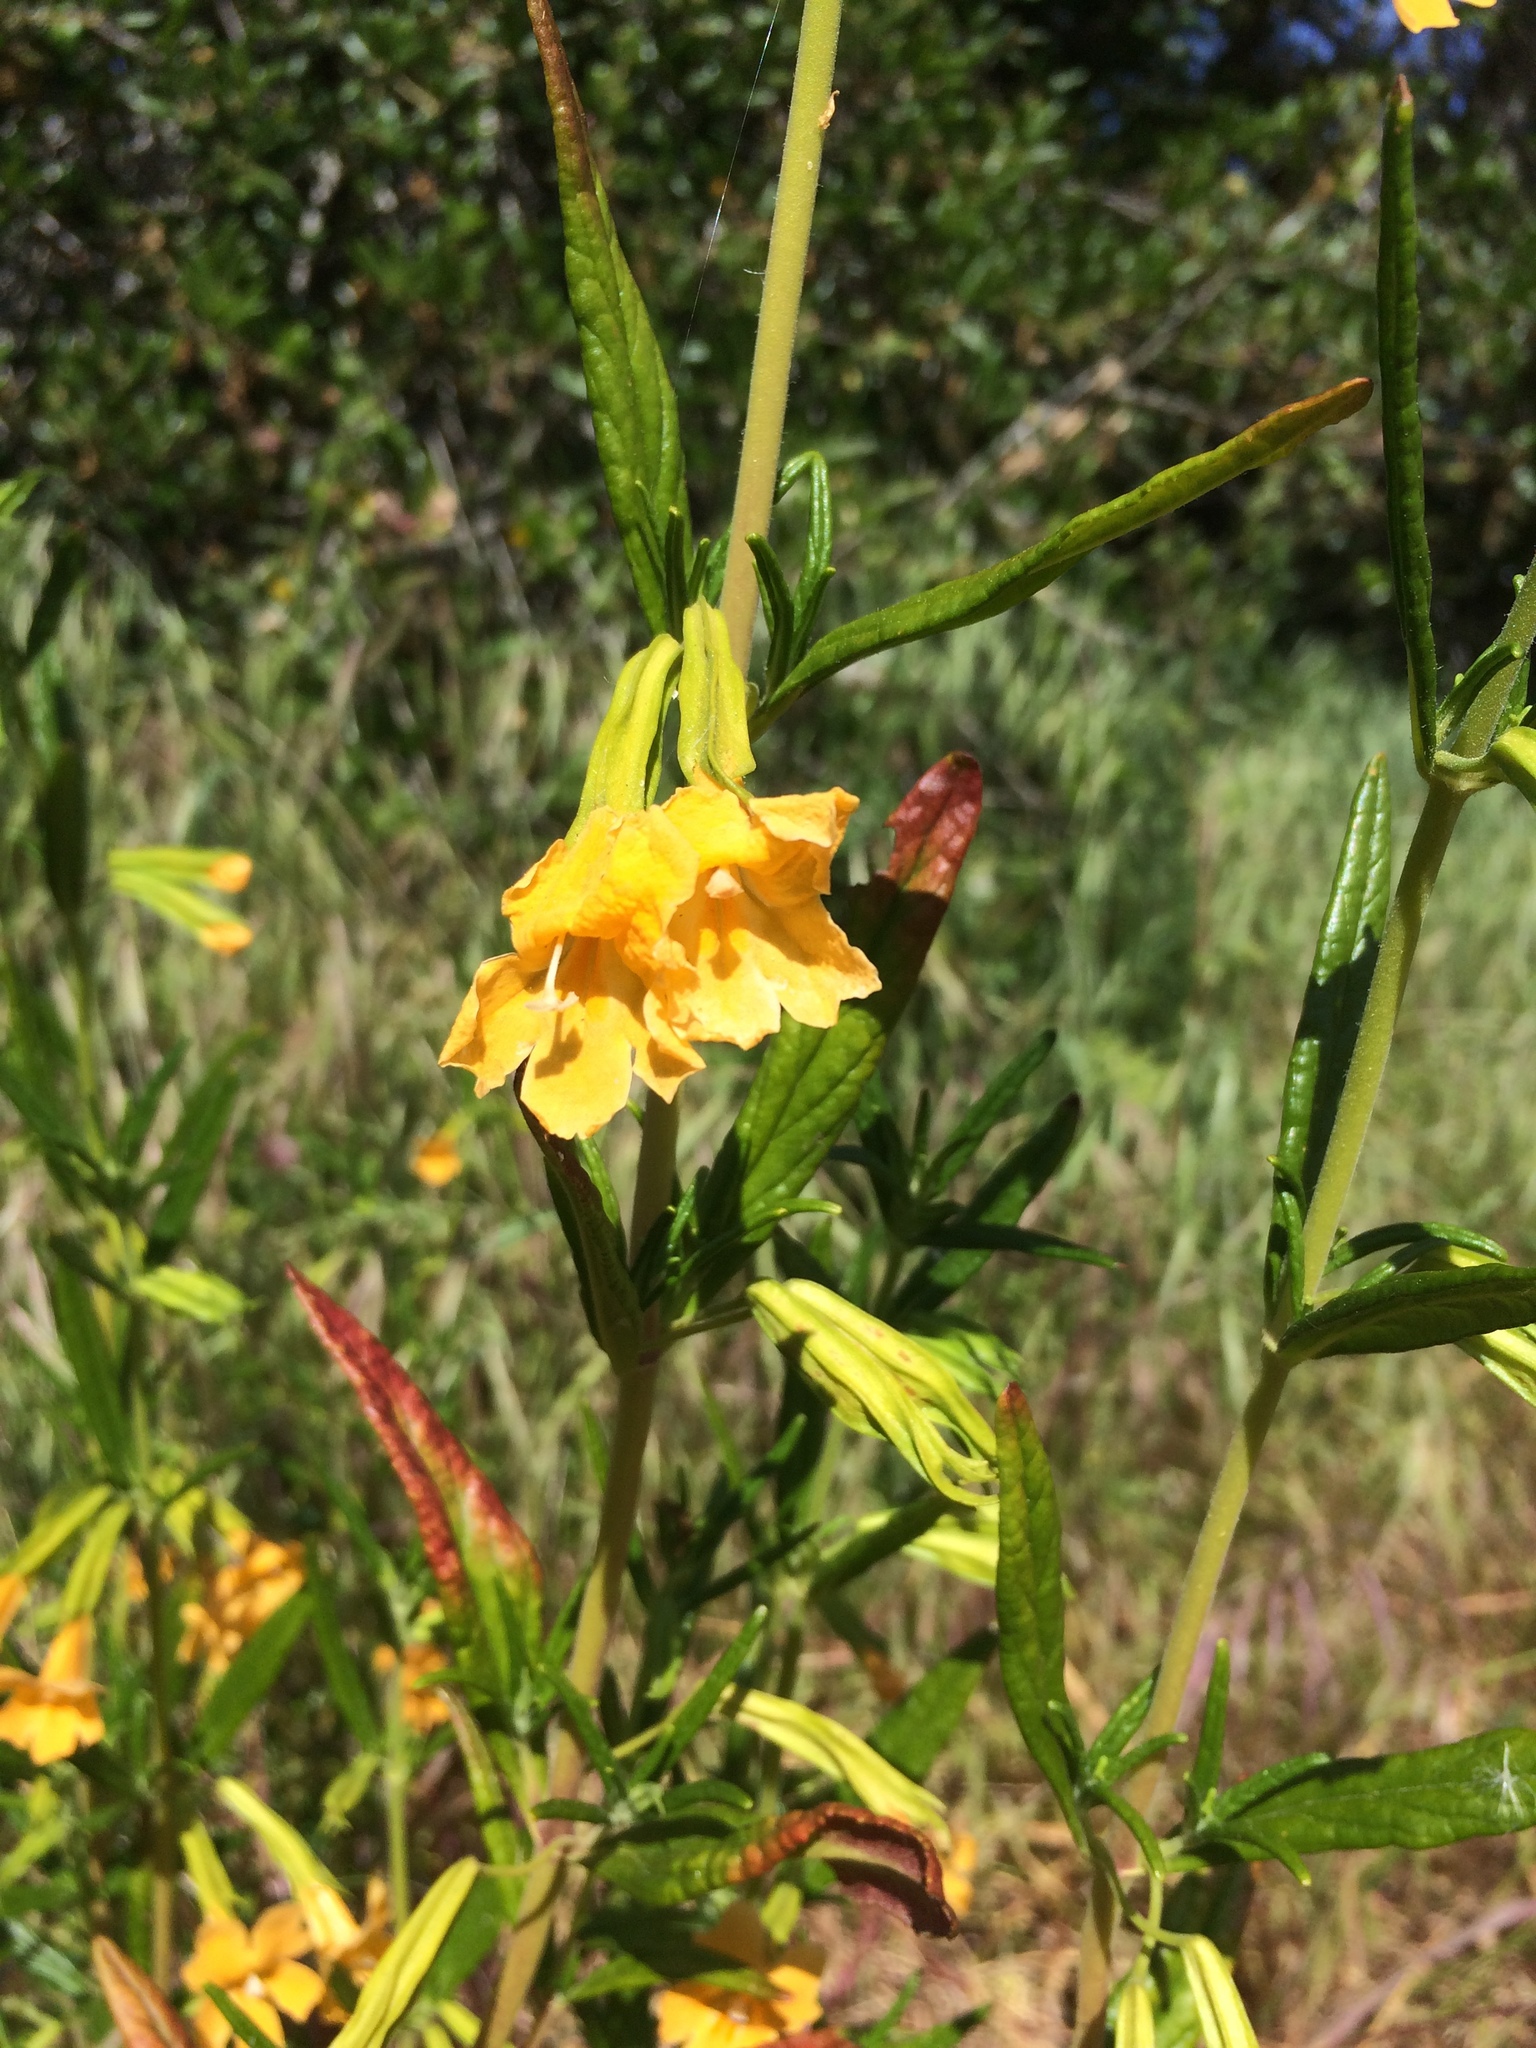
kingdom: Plantae
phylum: Tracheophyta
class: Magnoliopsida
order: Lamiales
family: Phrymaceae
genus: Diplacus
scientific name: Diplacus aurantiacus
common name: Bush monkey-flower
